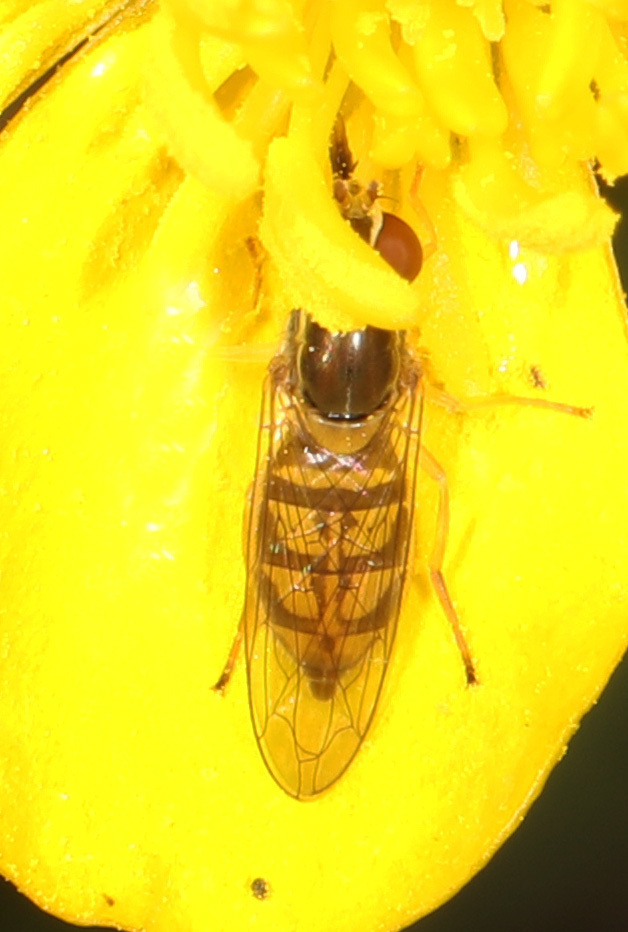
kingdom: Animalia
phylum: Arthropoda
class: Insecta
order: Diptera
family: Syrphidae
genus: Toxomerus
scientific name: Toxomerus marginatus
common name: Syrphid fly
